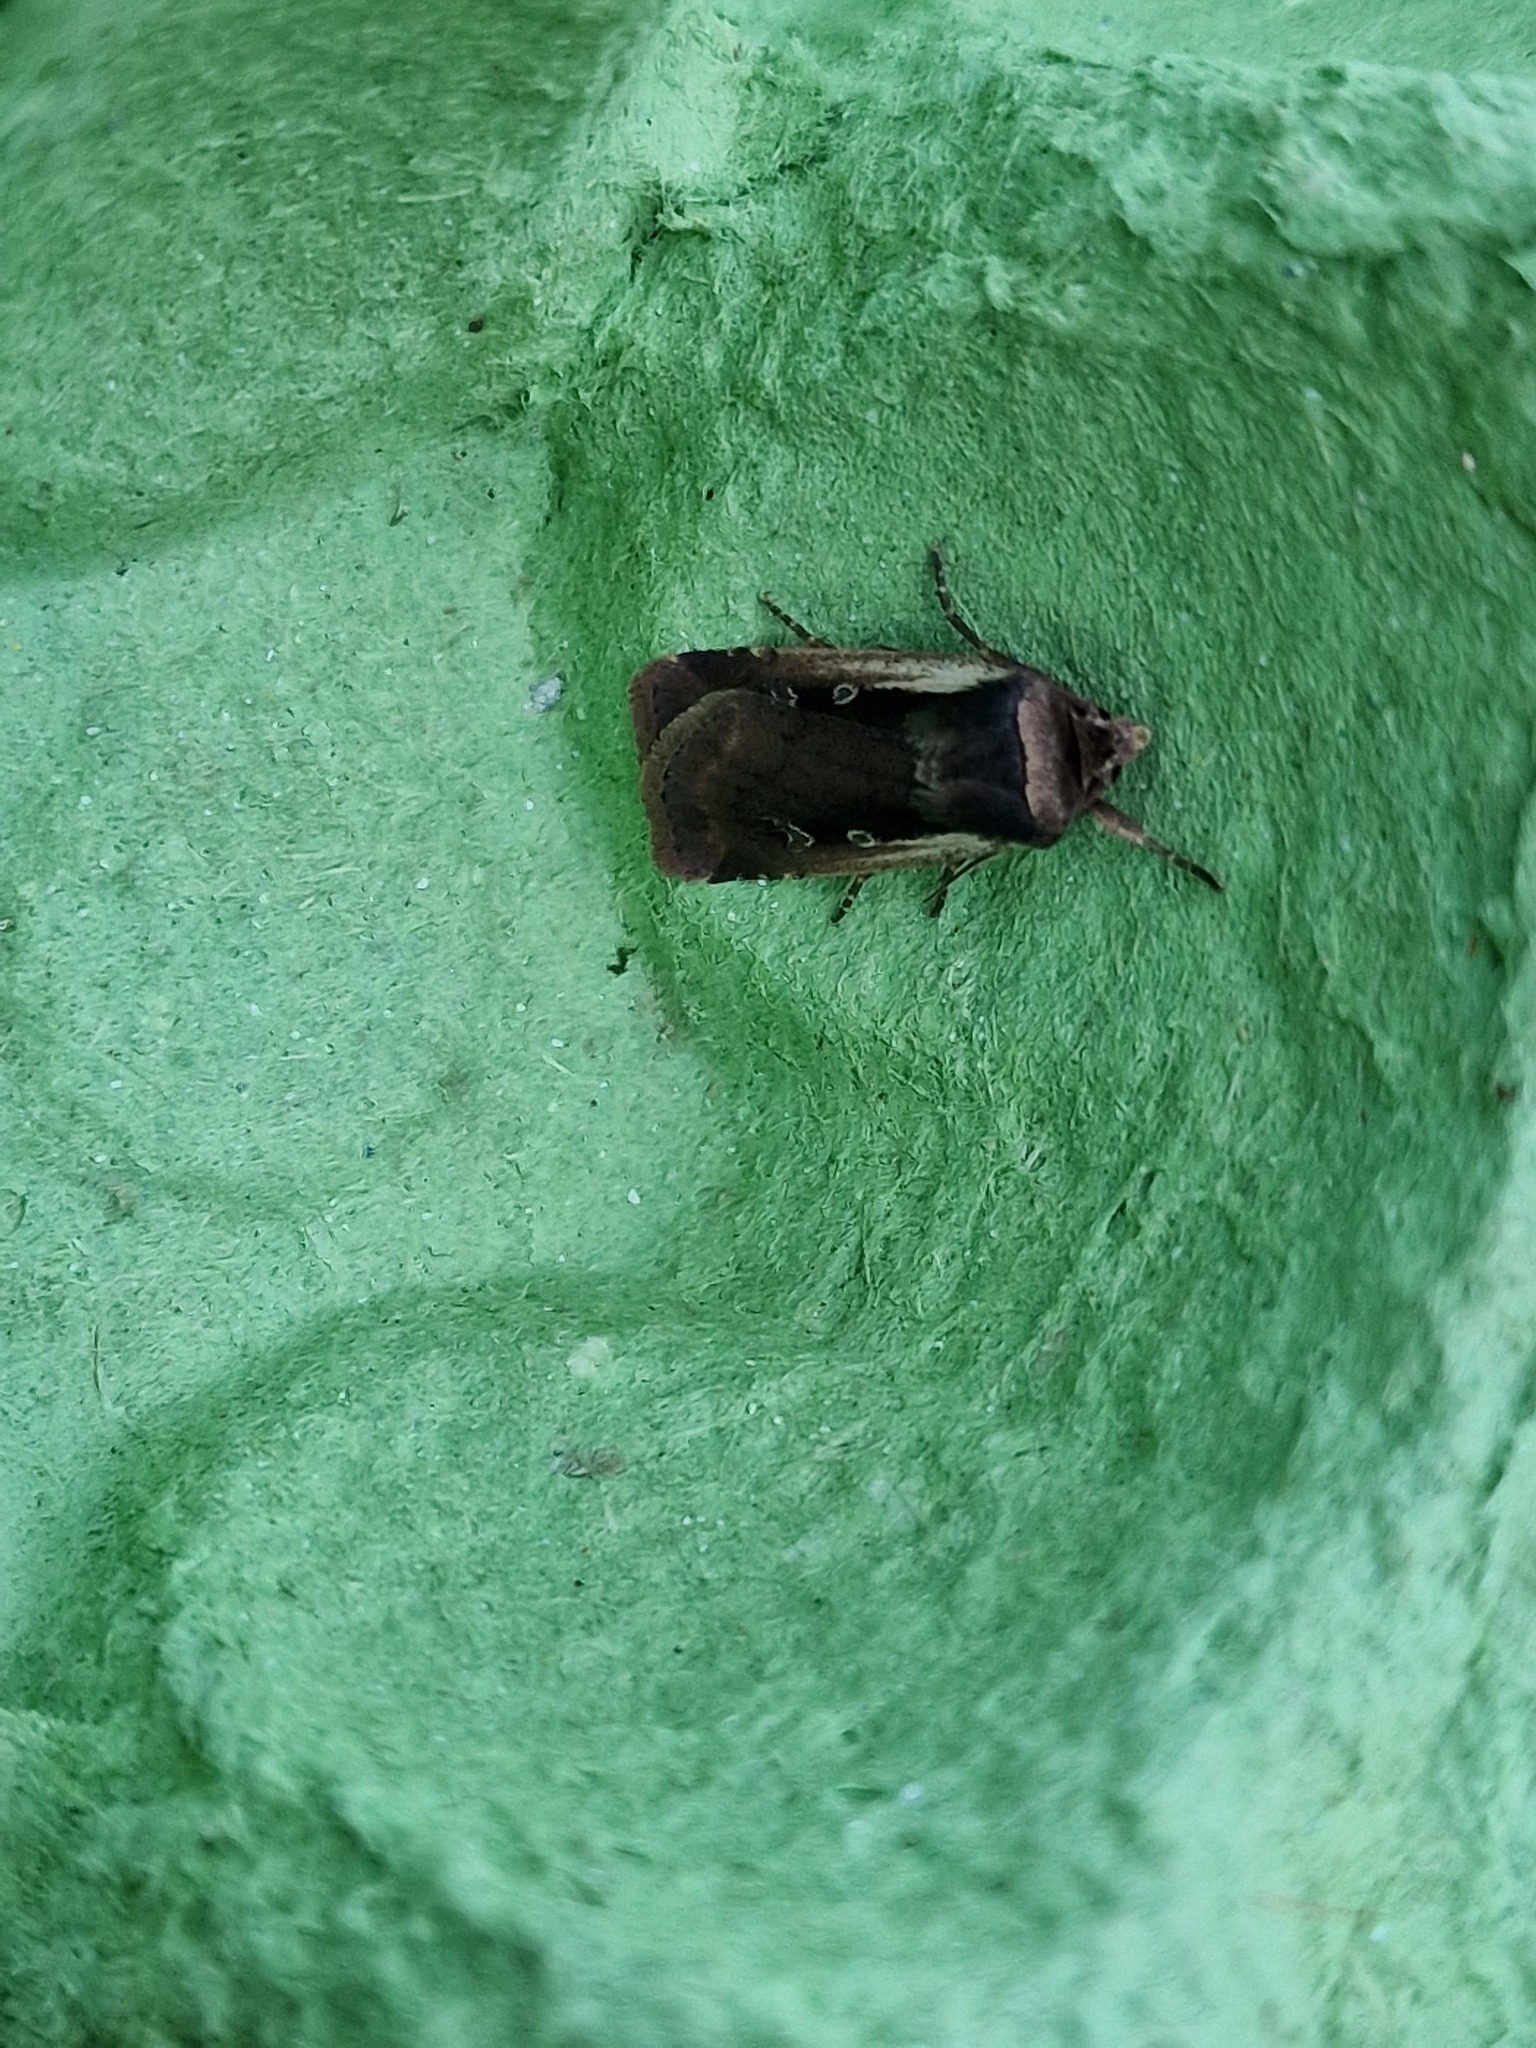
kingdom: Animalia
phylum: Arthropoda
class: Insecta
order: Lepidoptera
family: Noctuidae
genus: Ochropleura
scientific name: Ochropleura plecta
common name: Flame shoulder
